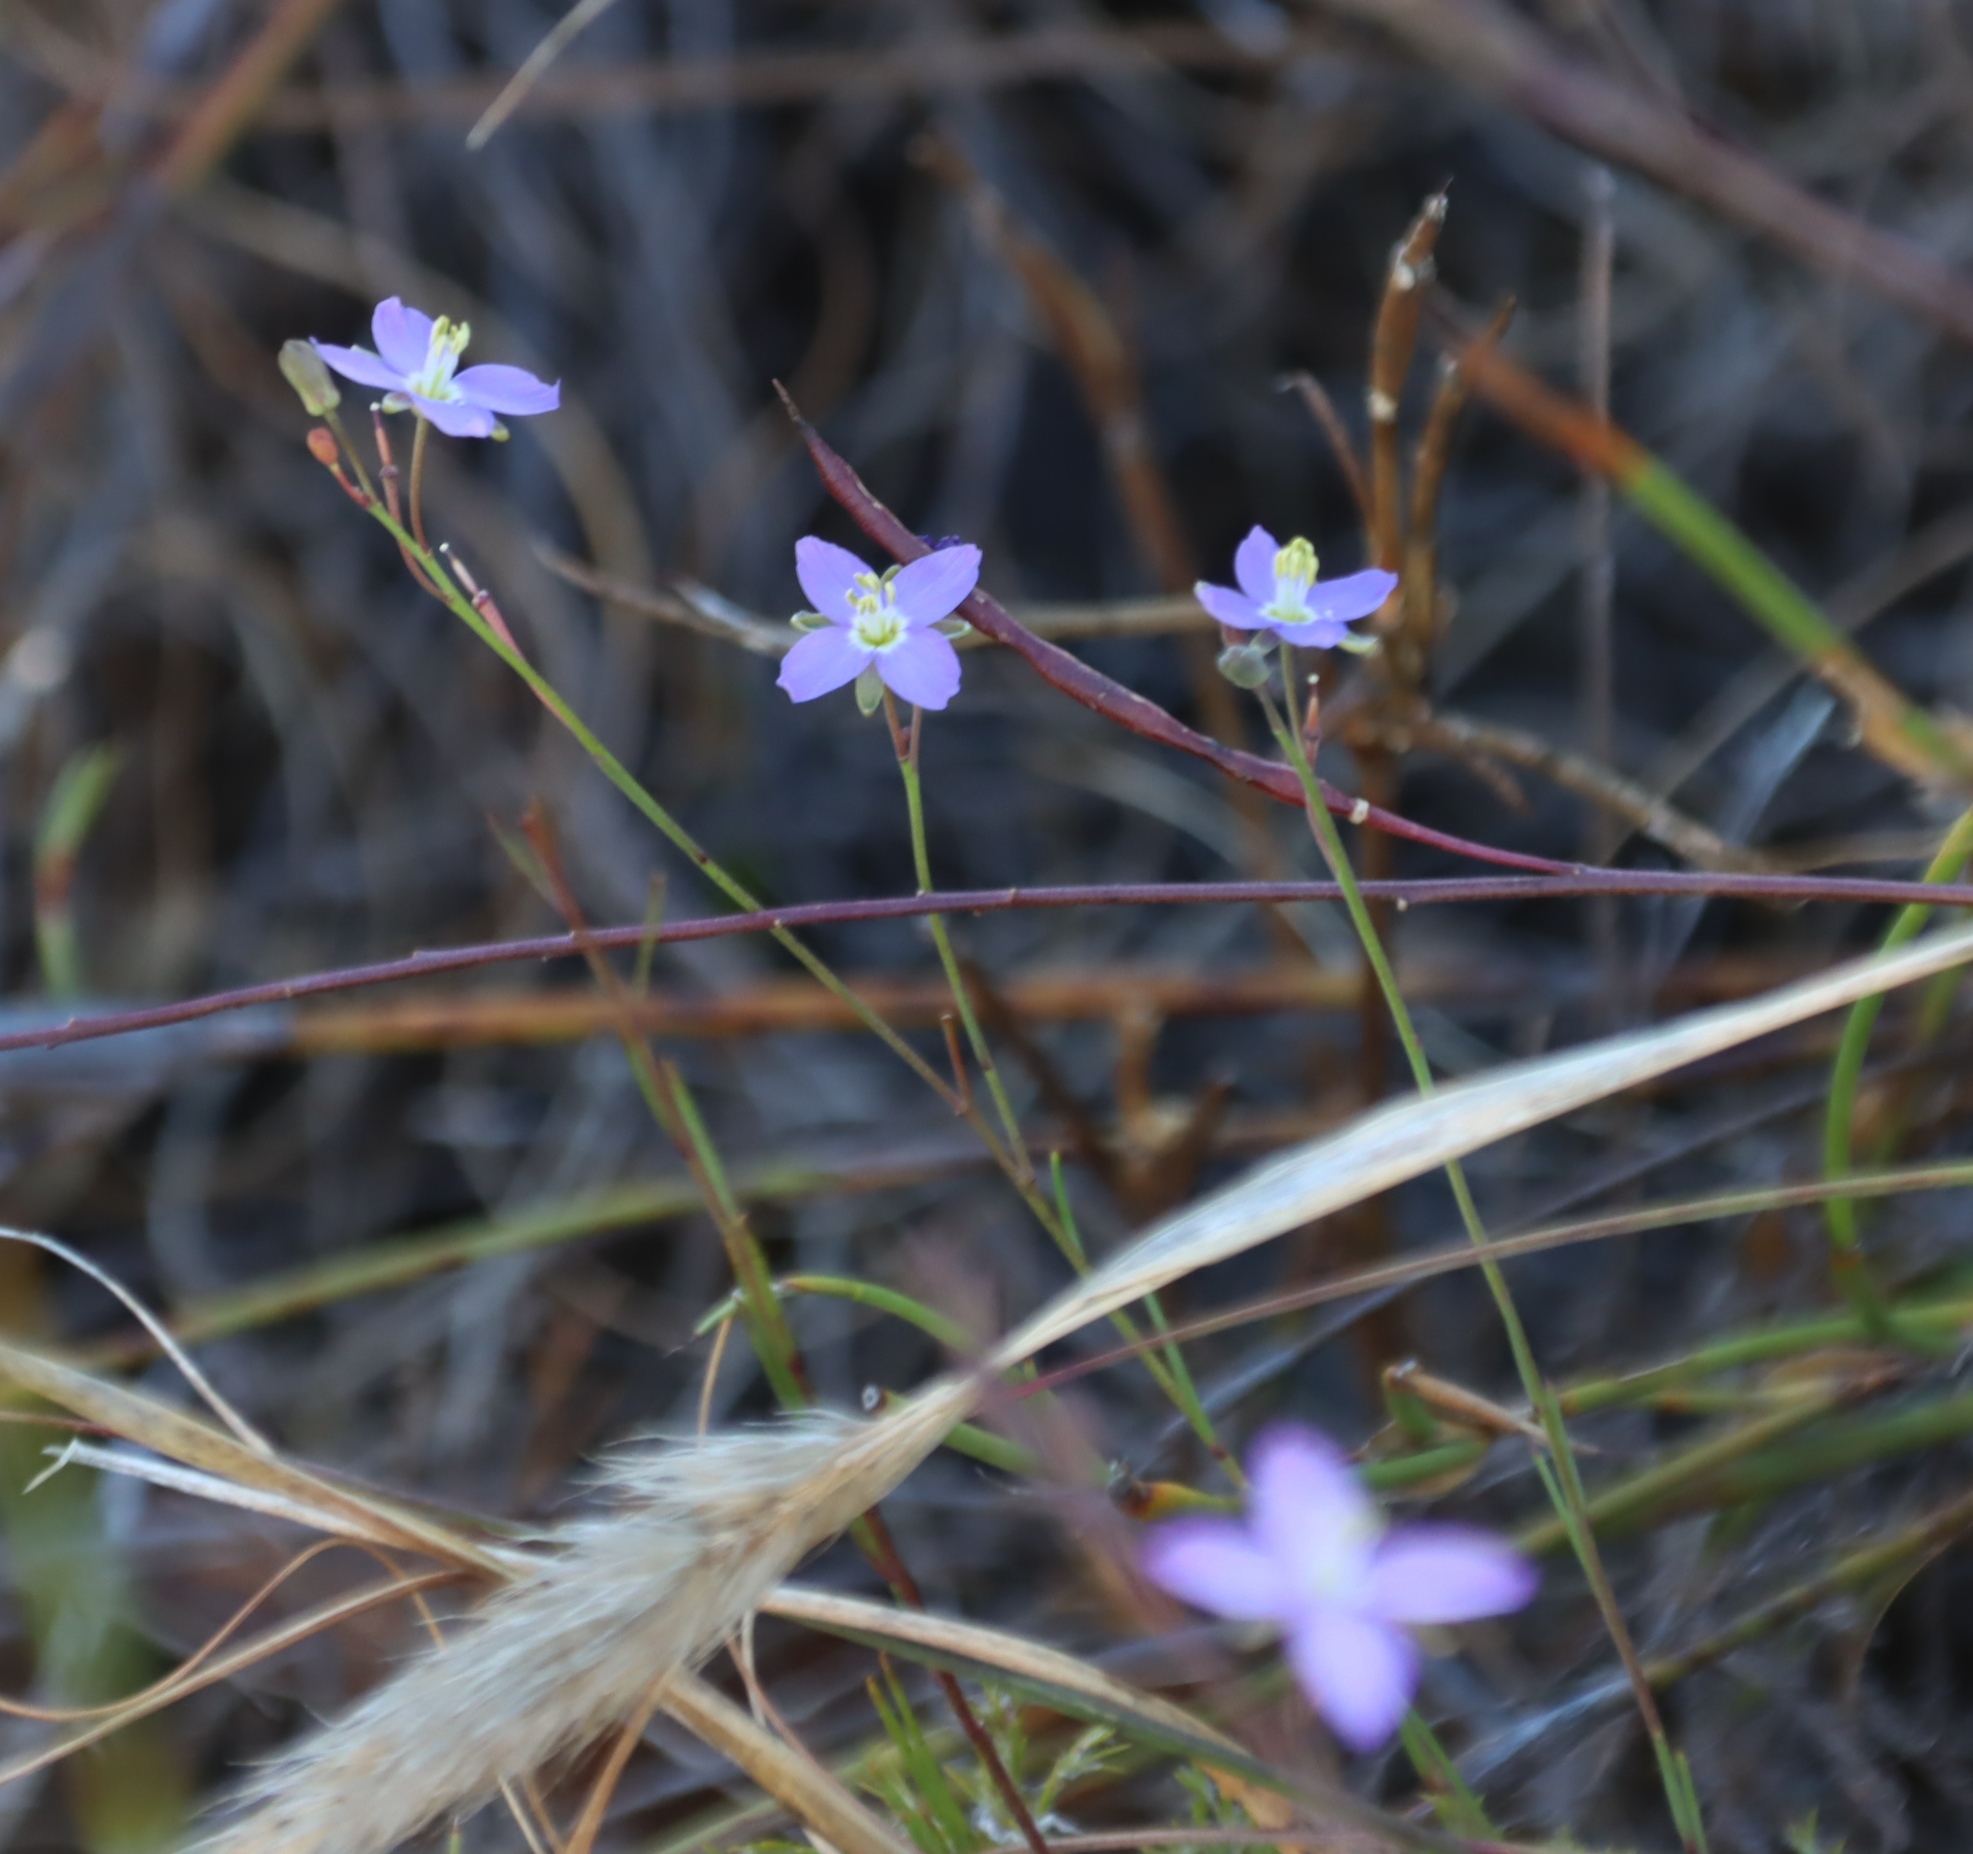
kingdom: Plantae
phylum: Tracheophyta
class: Magnoliopsida
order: Brassicales
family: Brassicaceae
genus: Heliophila
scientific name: Heliophila linearis
